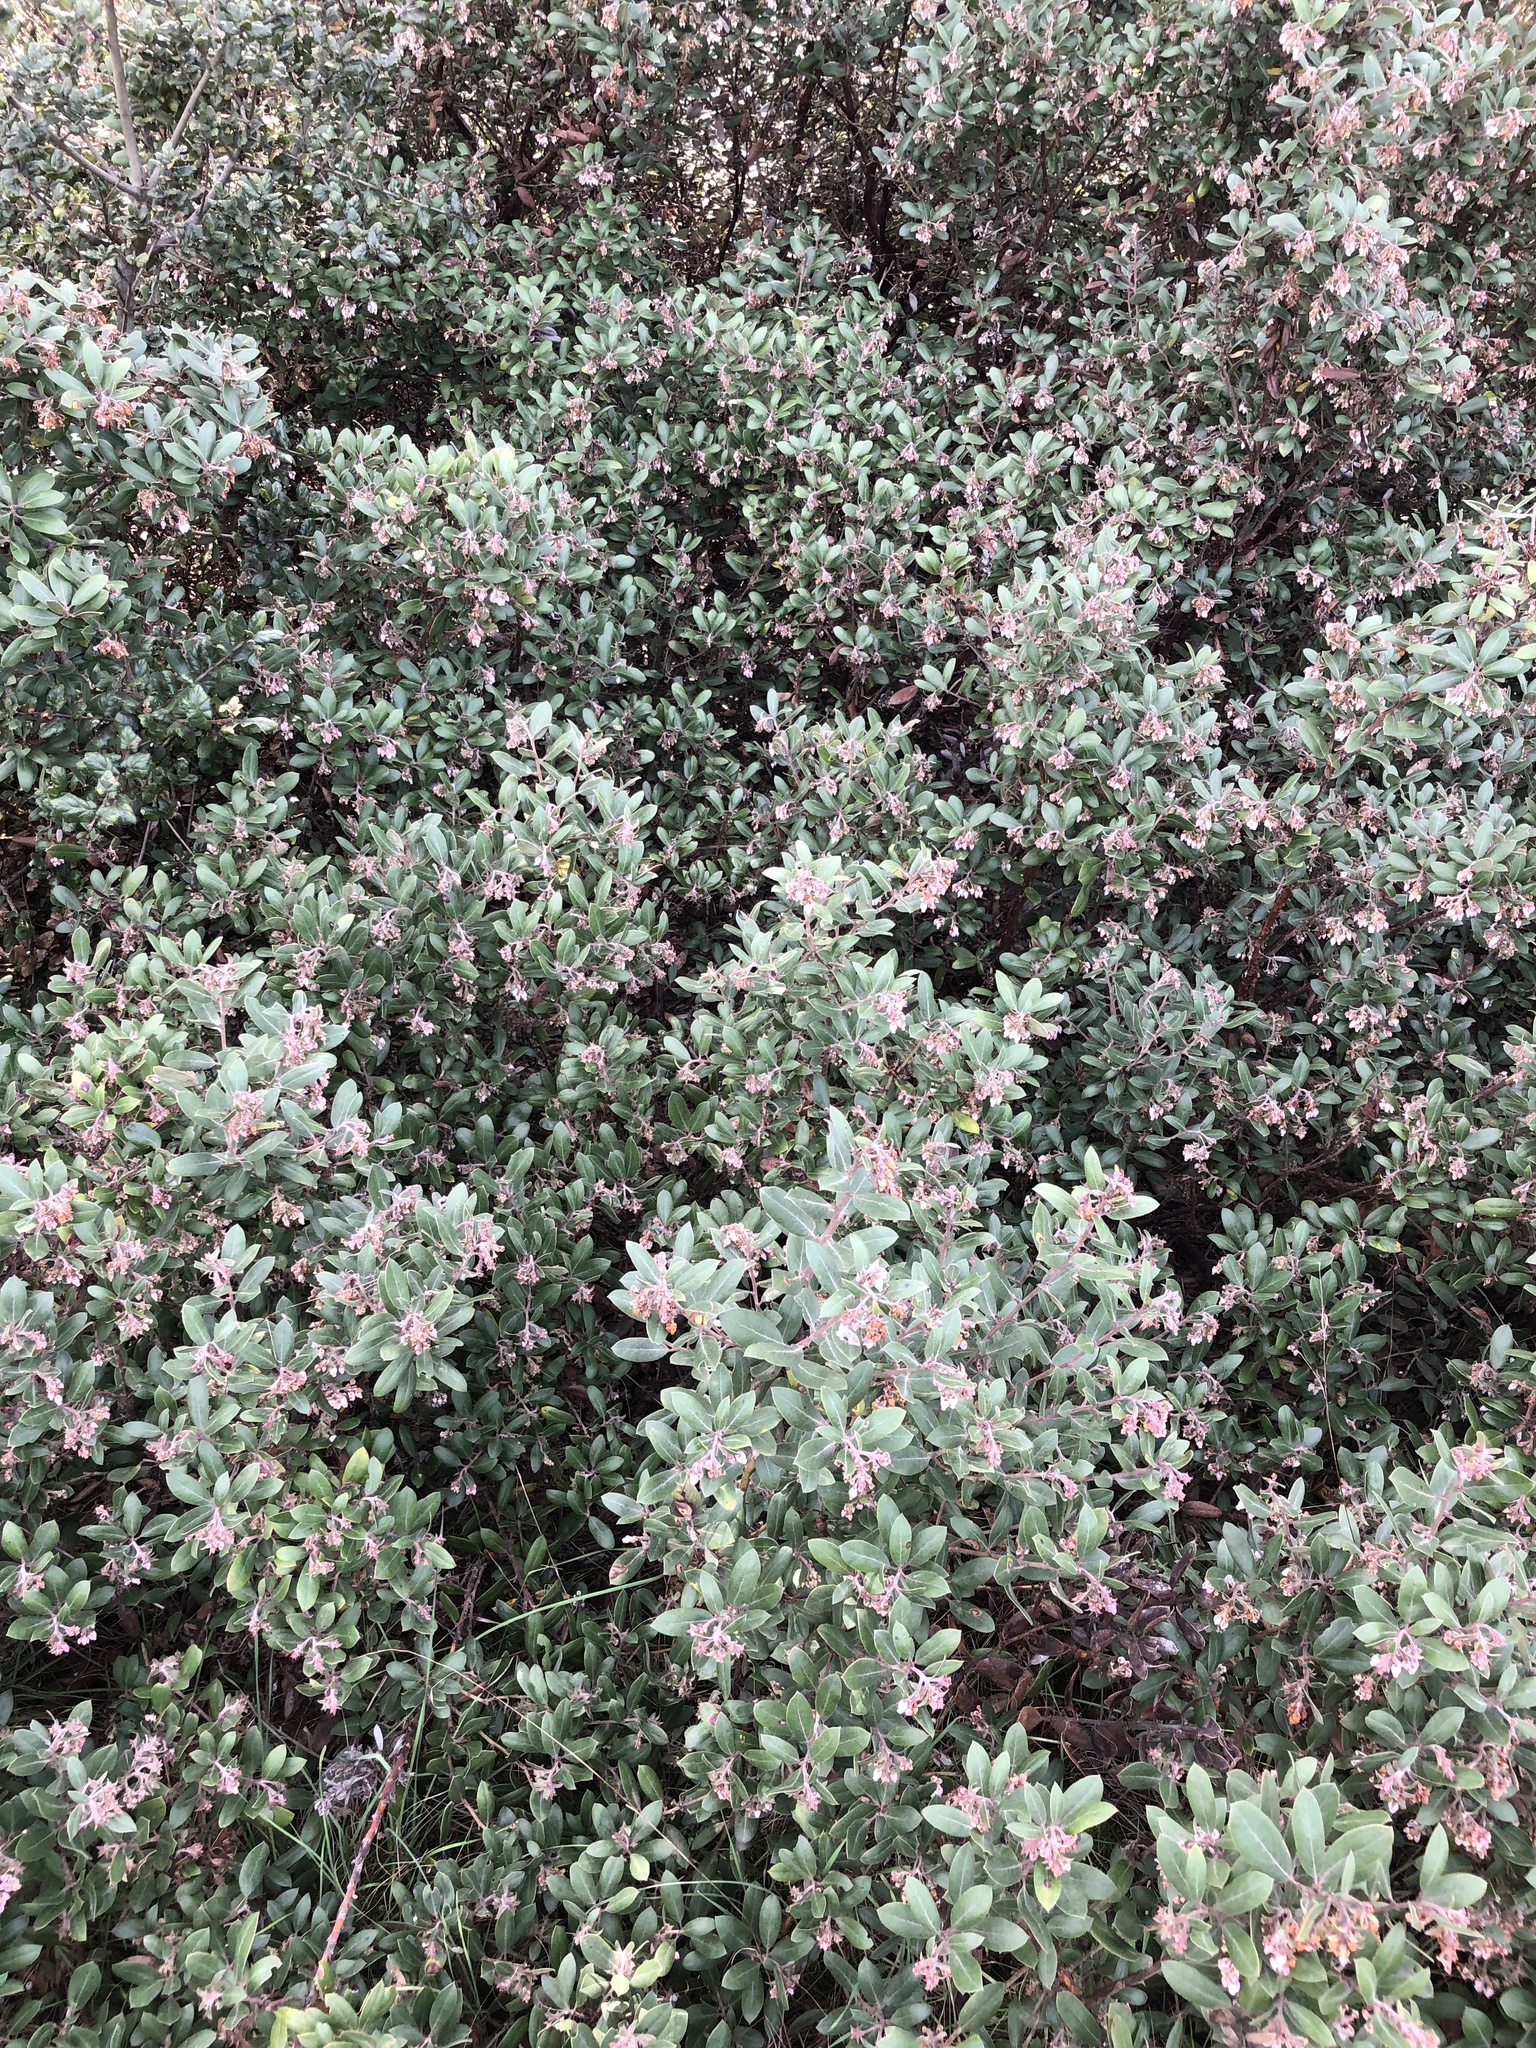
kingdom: Plantae
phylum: Tracheophyta
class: Magnoliopsida
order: Ericales
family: Ericaceae
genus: Arctostaphylos
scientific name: Arctostaphylos tomentosa
